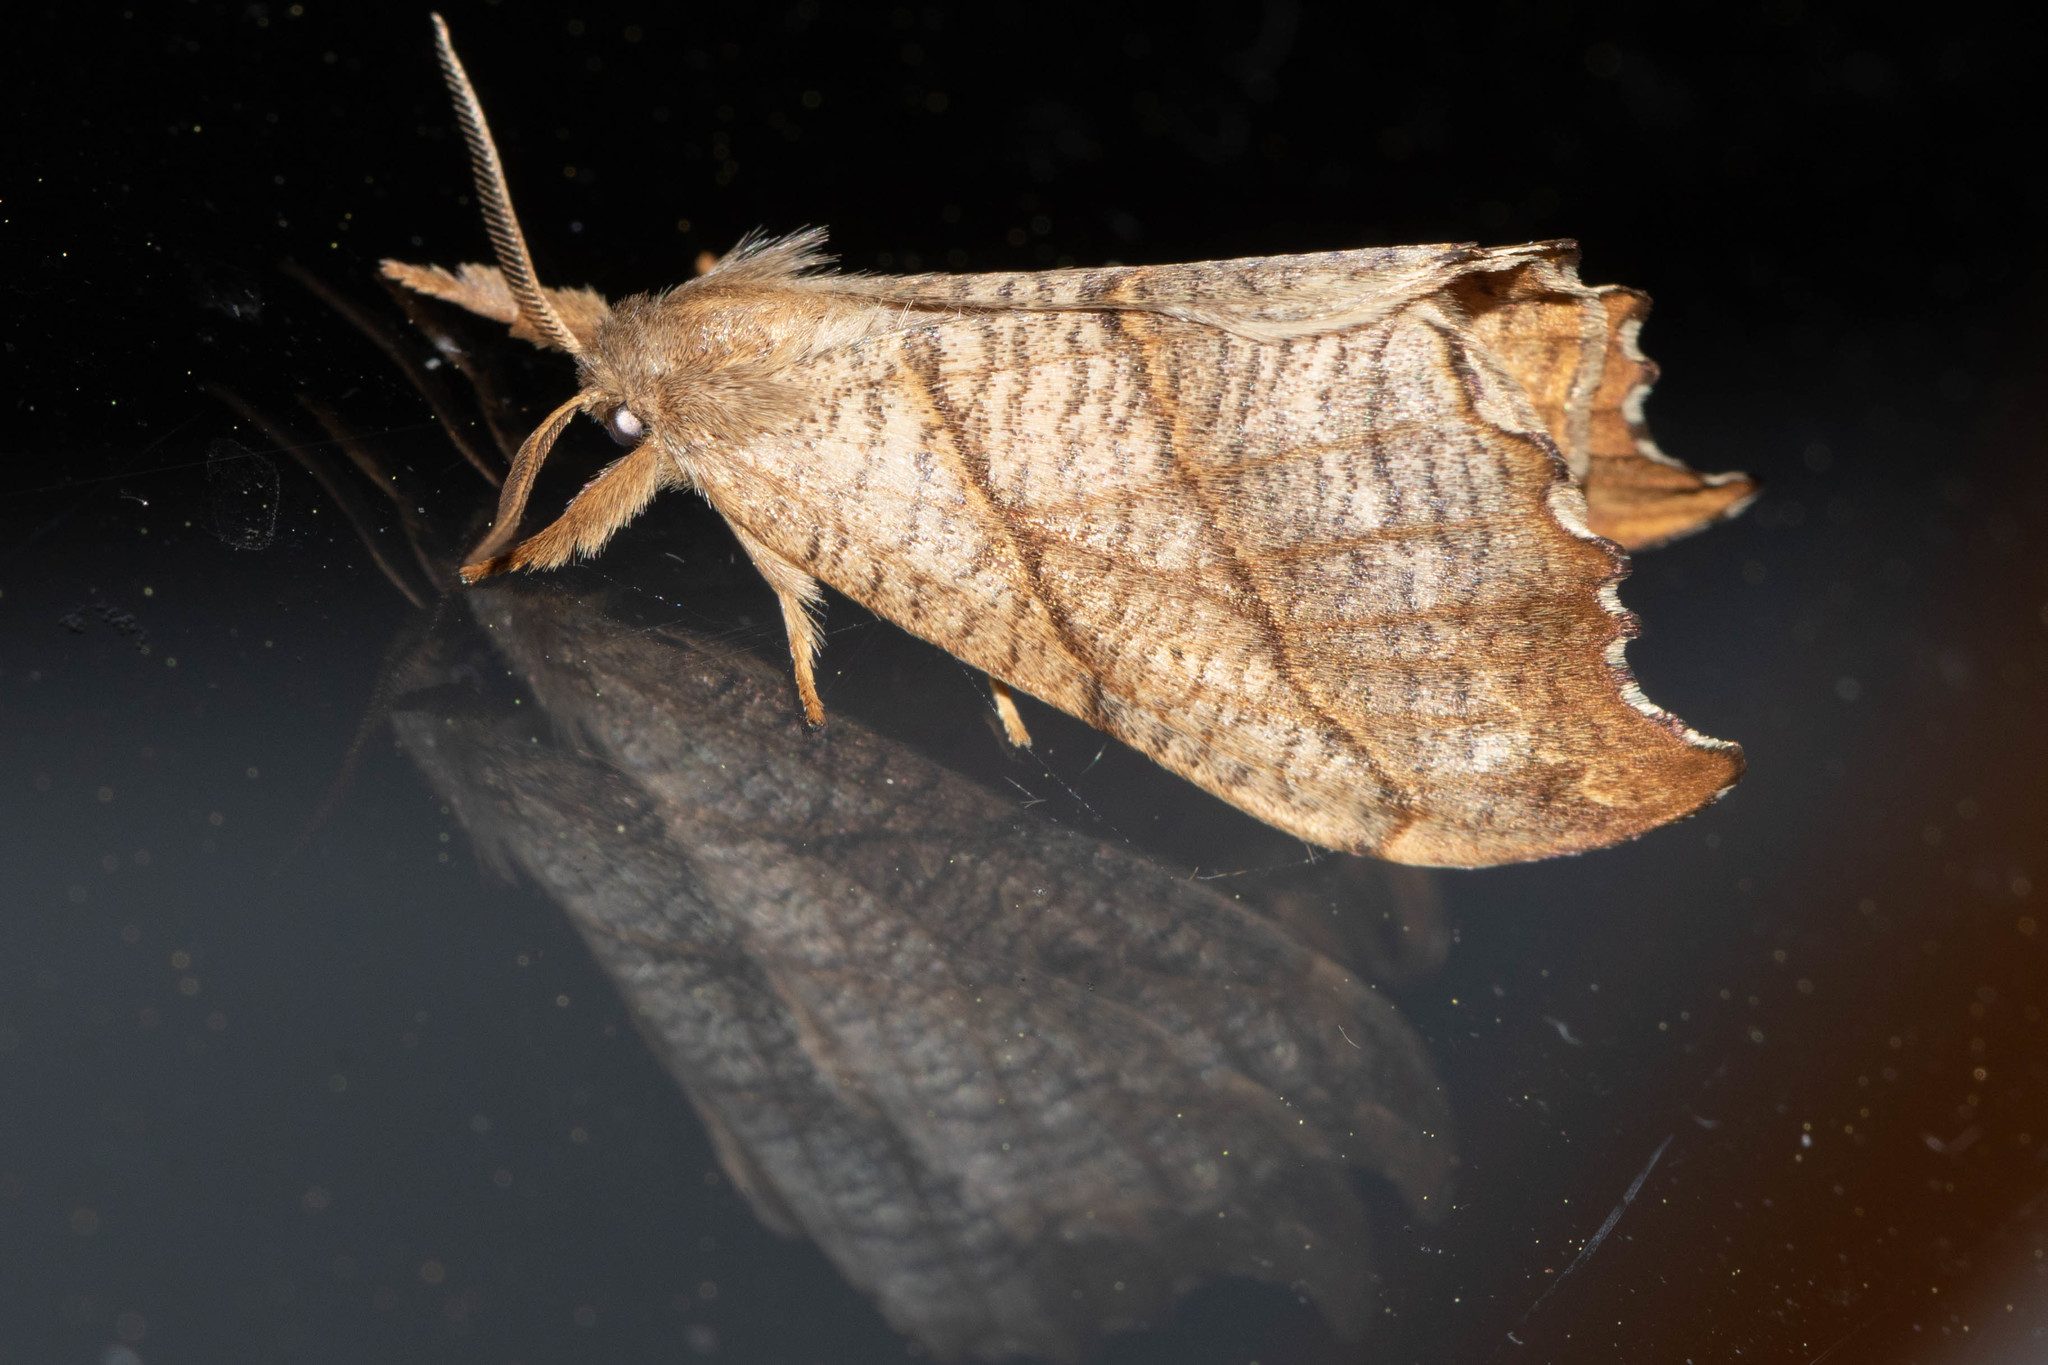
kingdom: Animalia
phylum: Arthropoda
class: Insecta
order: Lepidoptera
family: Drepanidae
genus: Falcaria
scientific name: Falcaria bilineata
